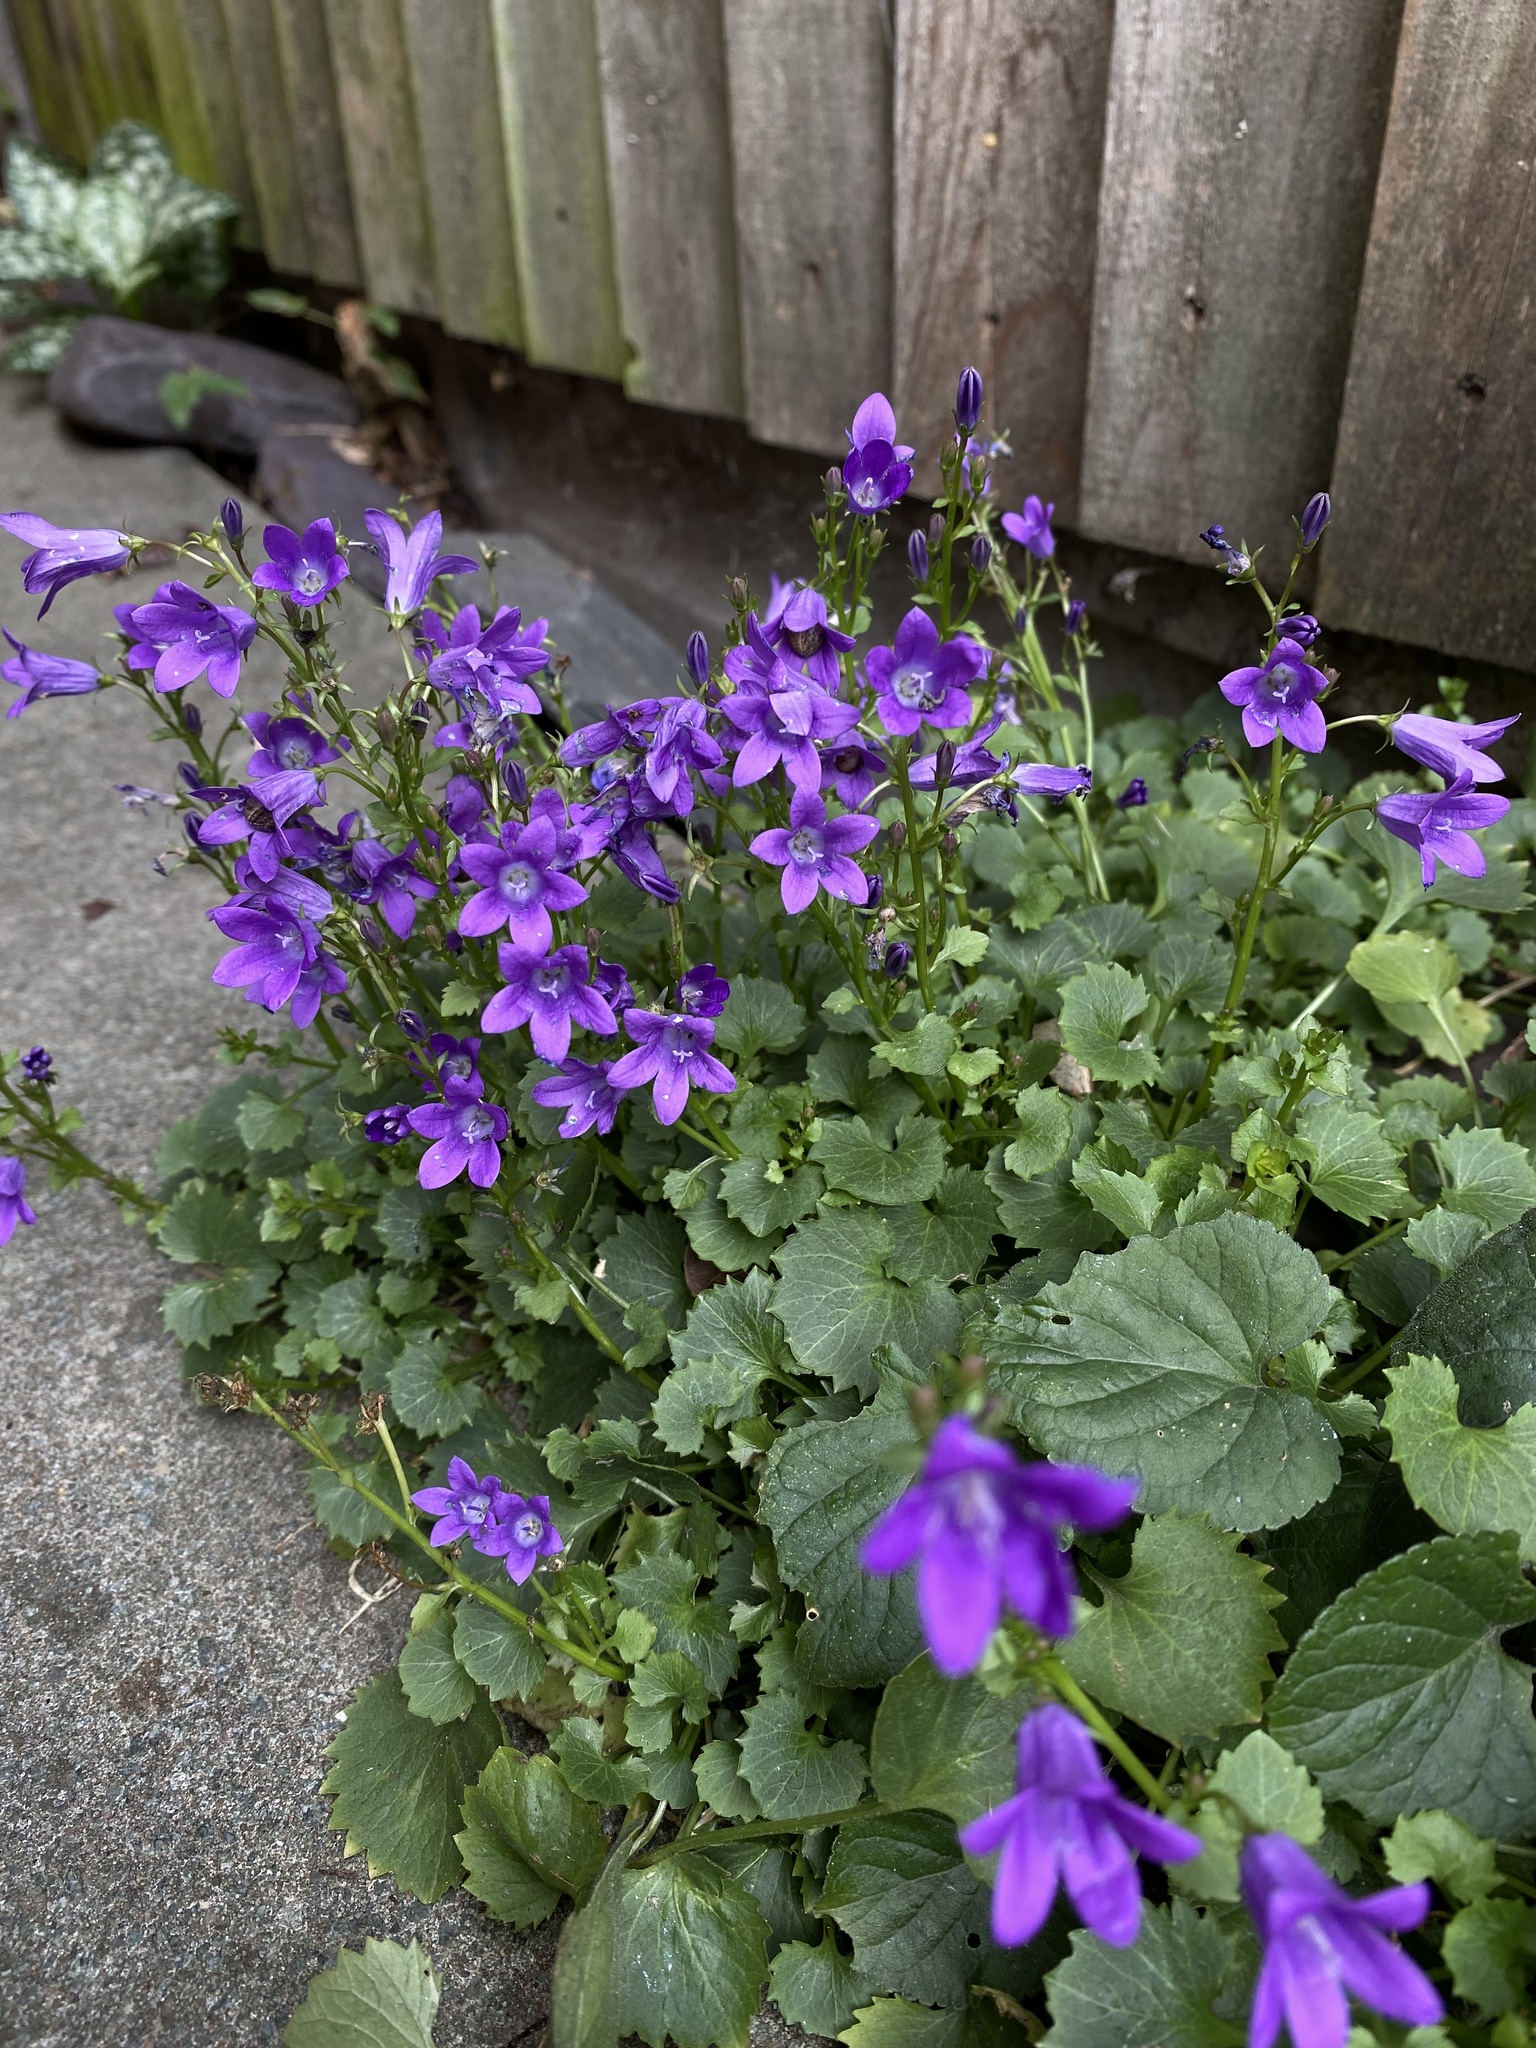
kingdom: Plantae
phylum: Tracheophyta
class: Magnoliopsida
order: Asterales
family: Campanulaceae
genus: Campanula
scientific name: Campanula portenschlagiana
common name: Adria bellflower
